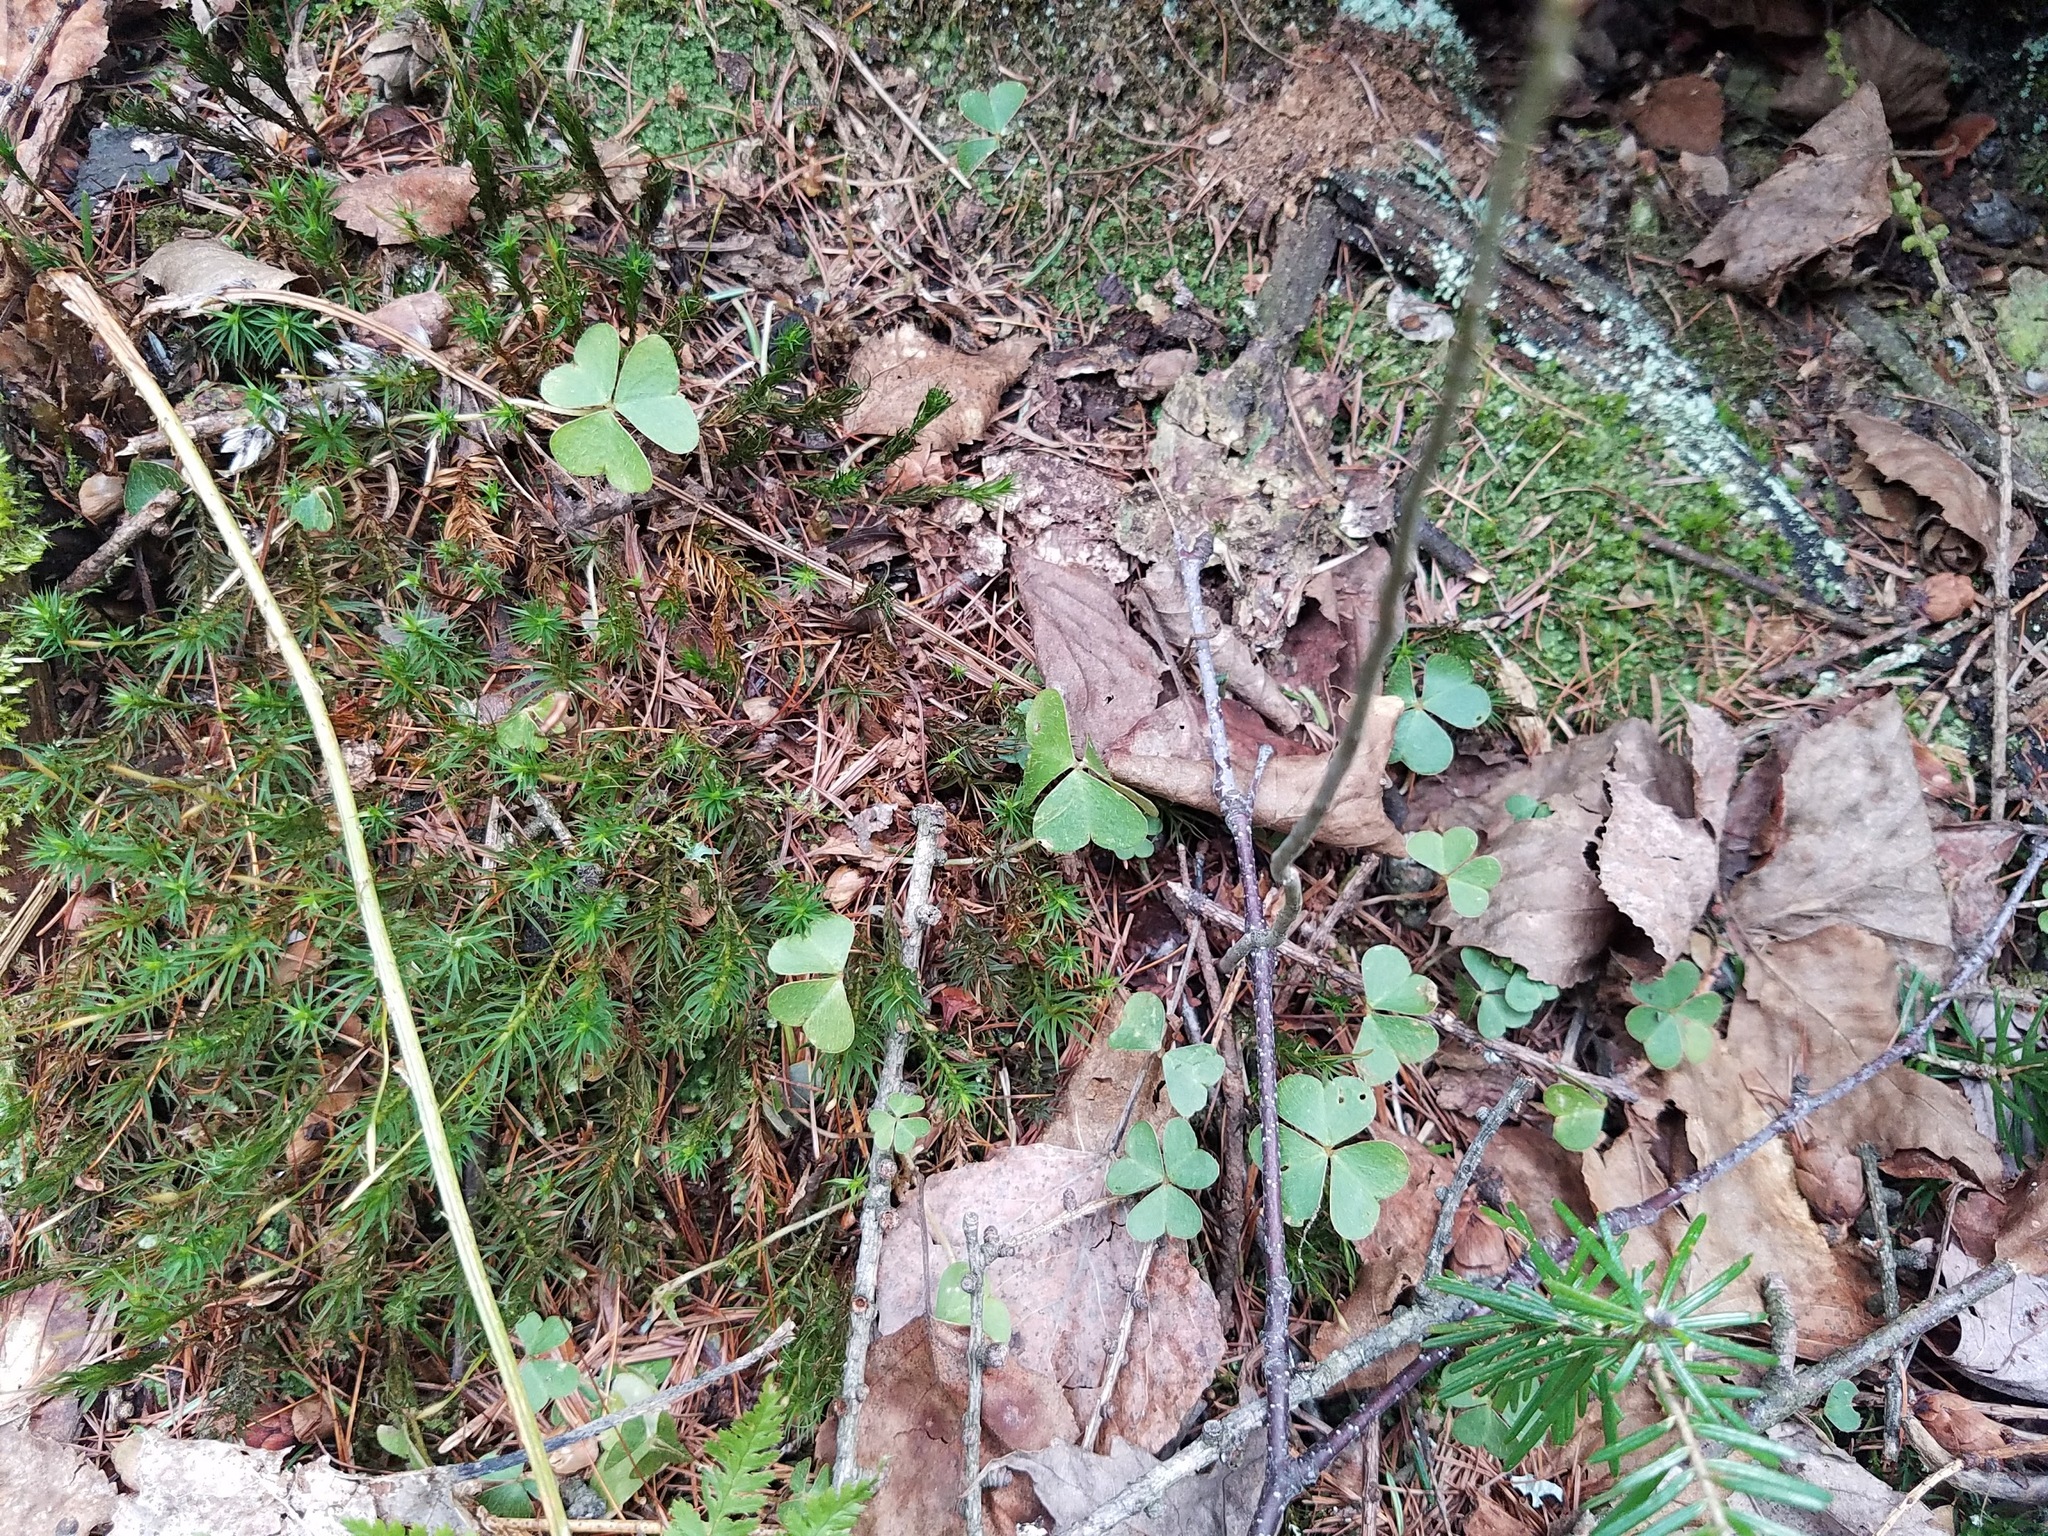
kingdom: Plantae
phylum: Tracheophyta
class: Magnoliopsida
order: Oxalidales
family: Oxalidaceae
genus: Oxalis
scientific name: Oxalis montana
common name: American wood-sorrel
